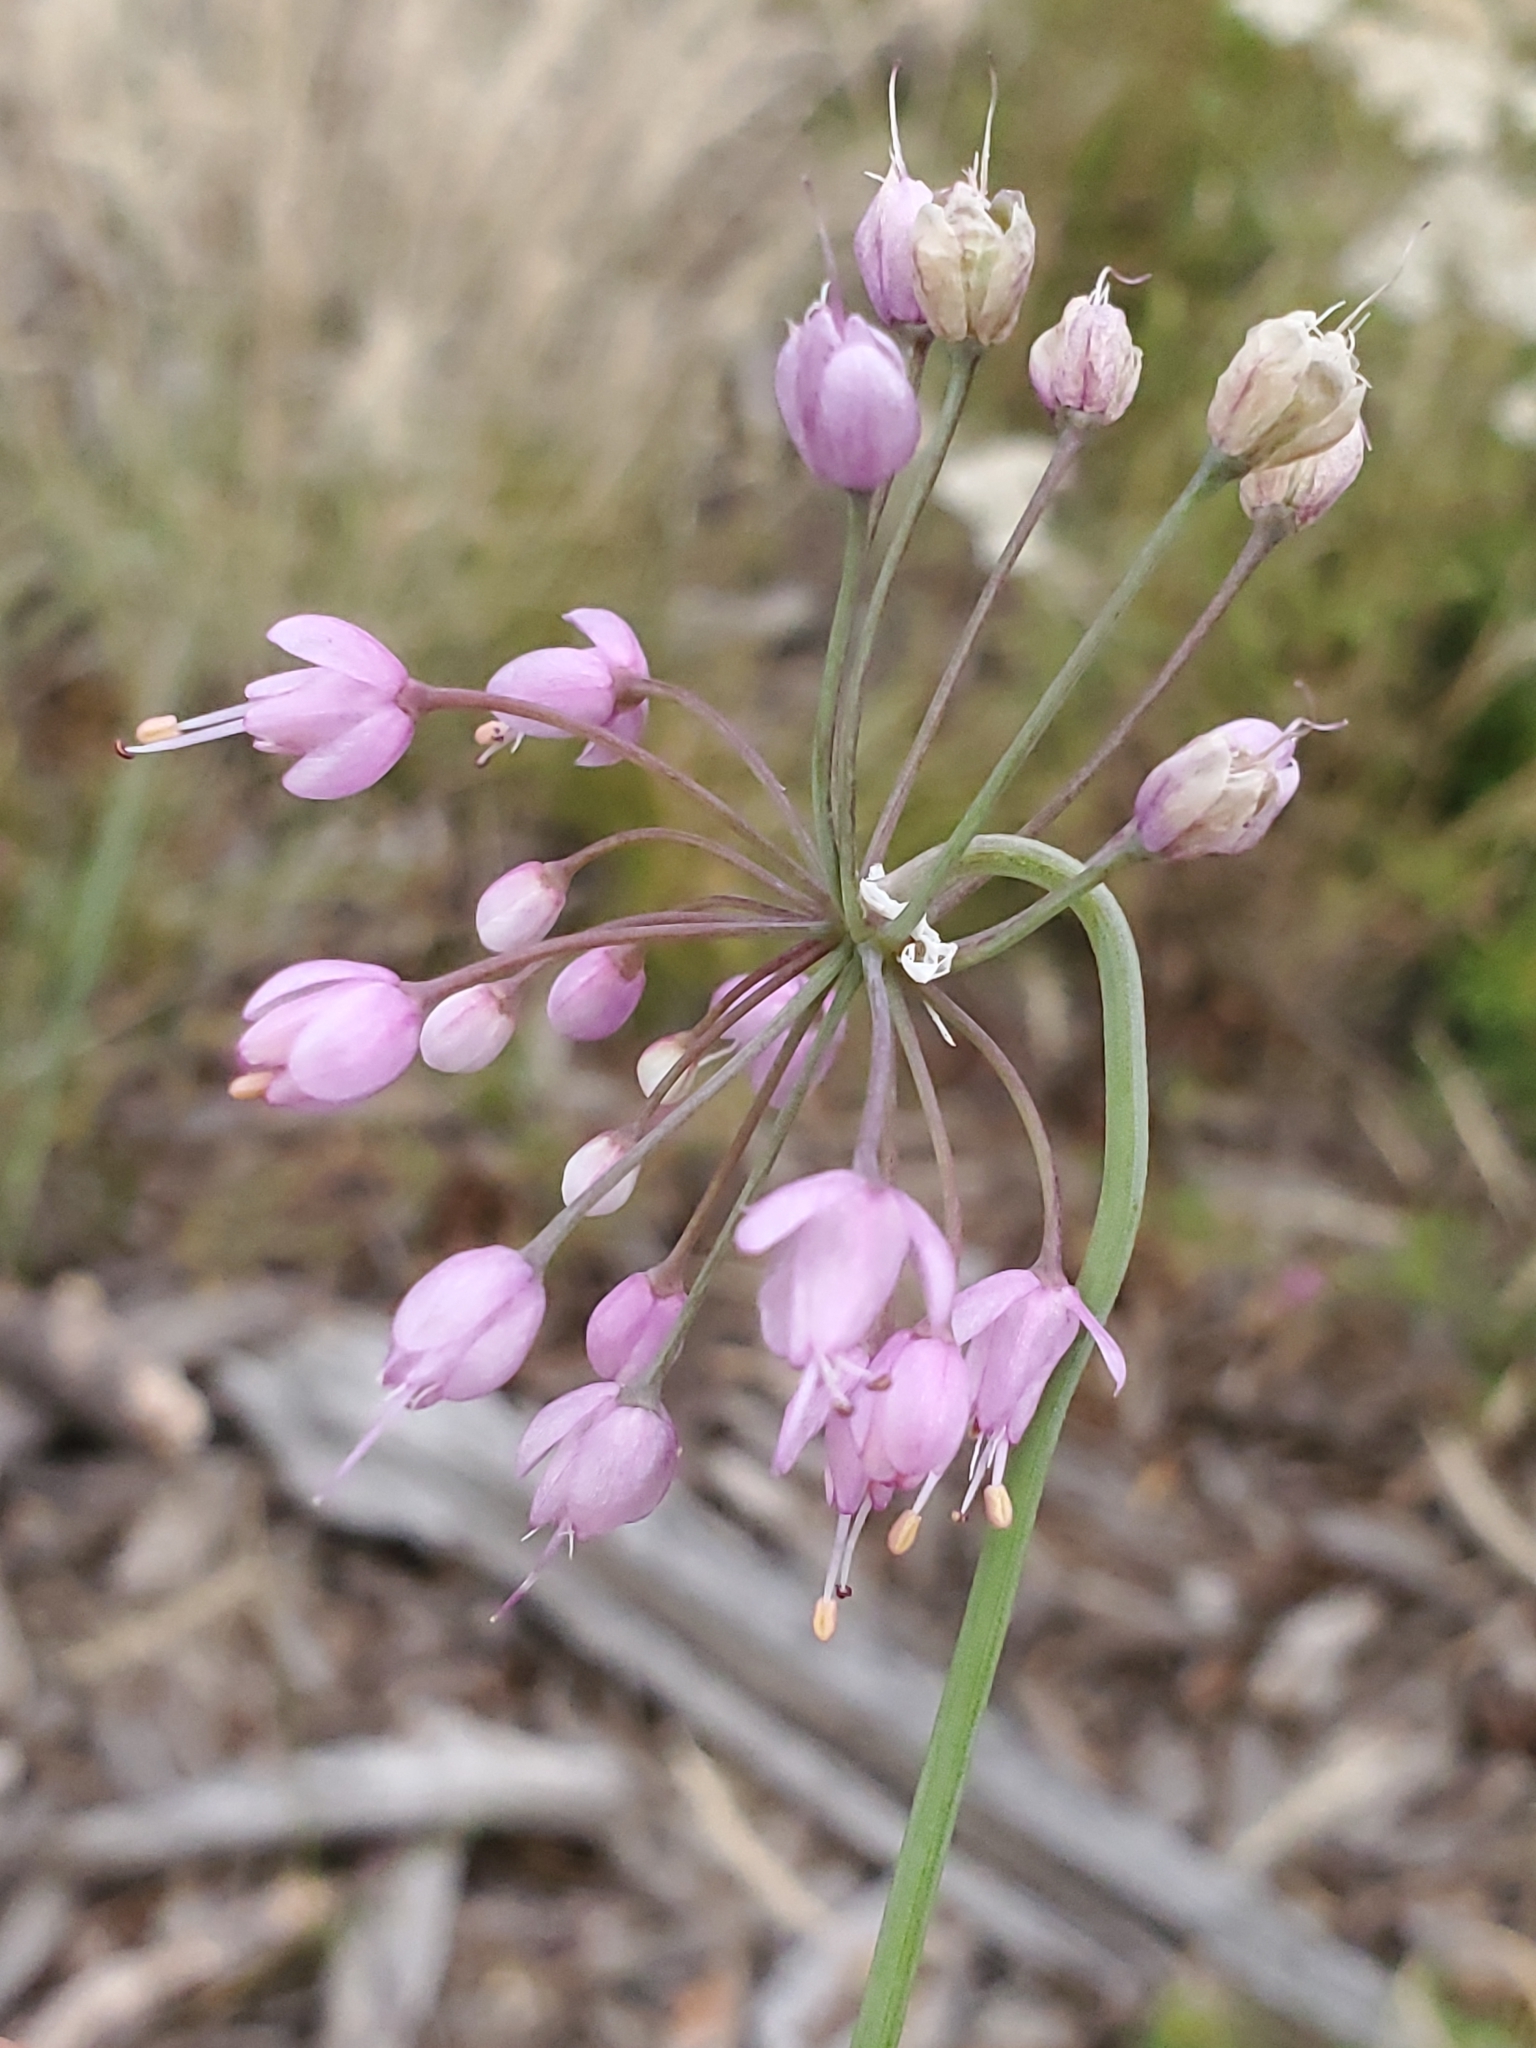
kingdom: Plantae
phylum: Tracheophyta
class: Liliopsida
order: Asparagales
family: Amaryllidaceae
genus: Allium
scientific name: Allium cernuum
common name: Nodding onion
